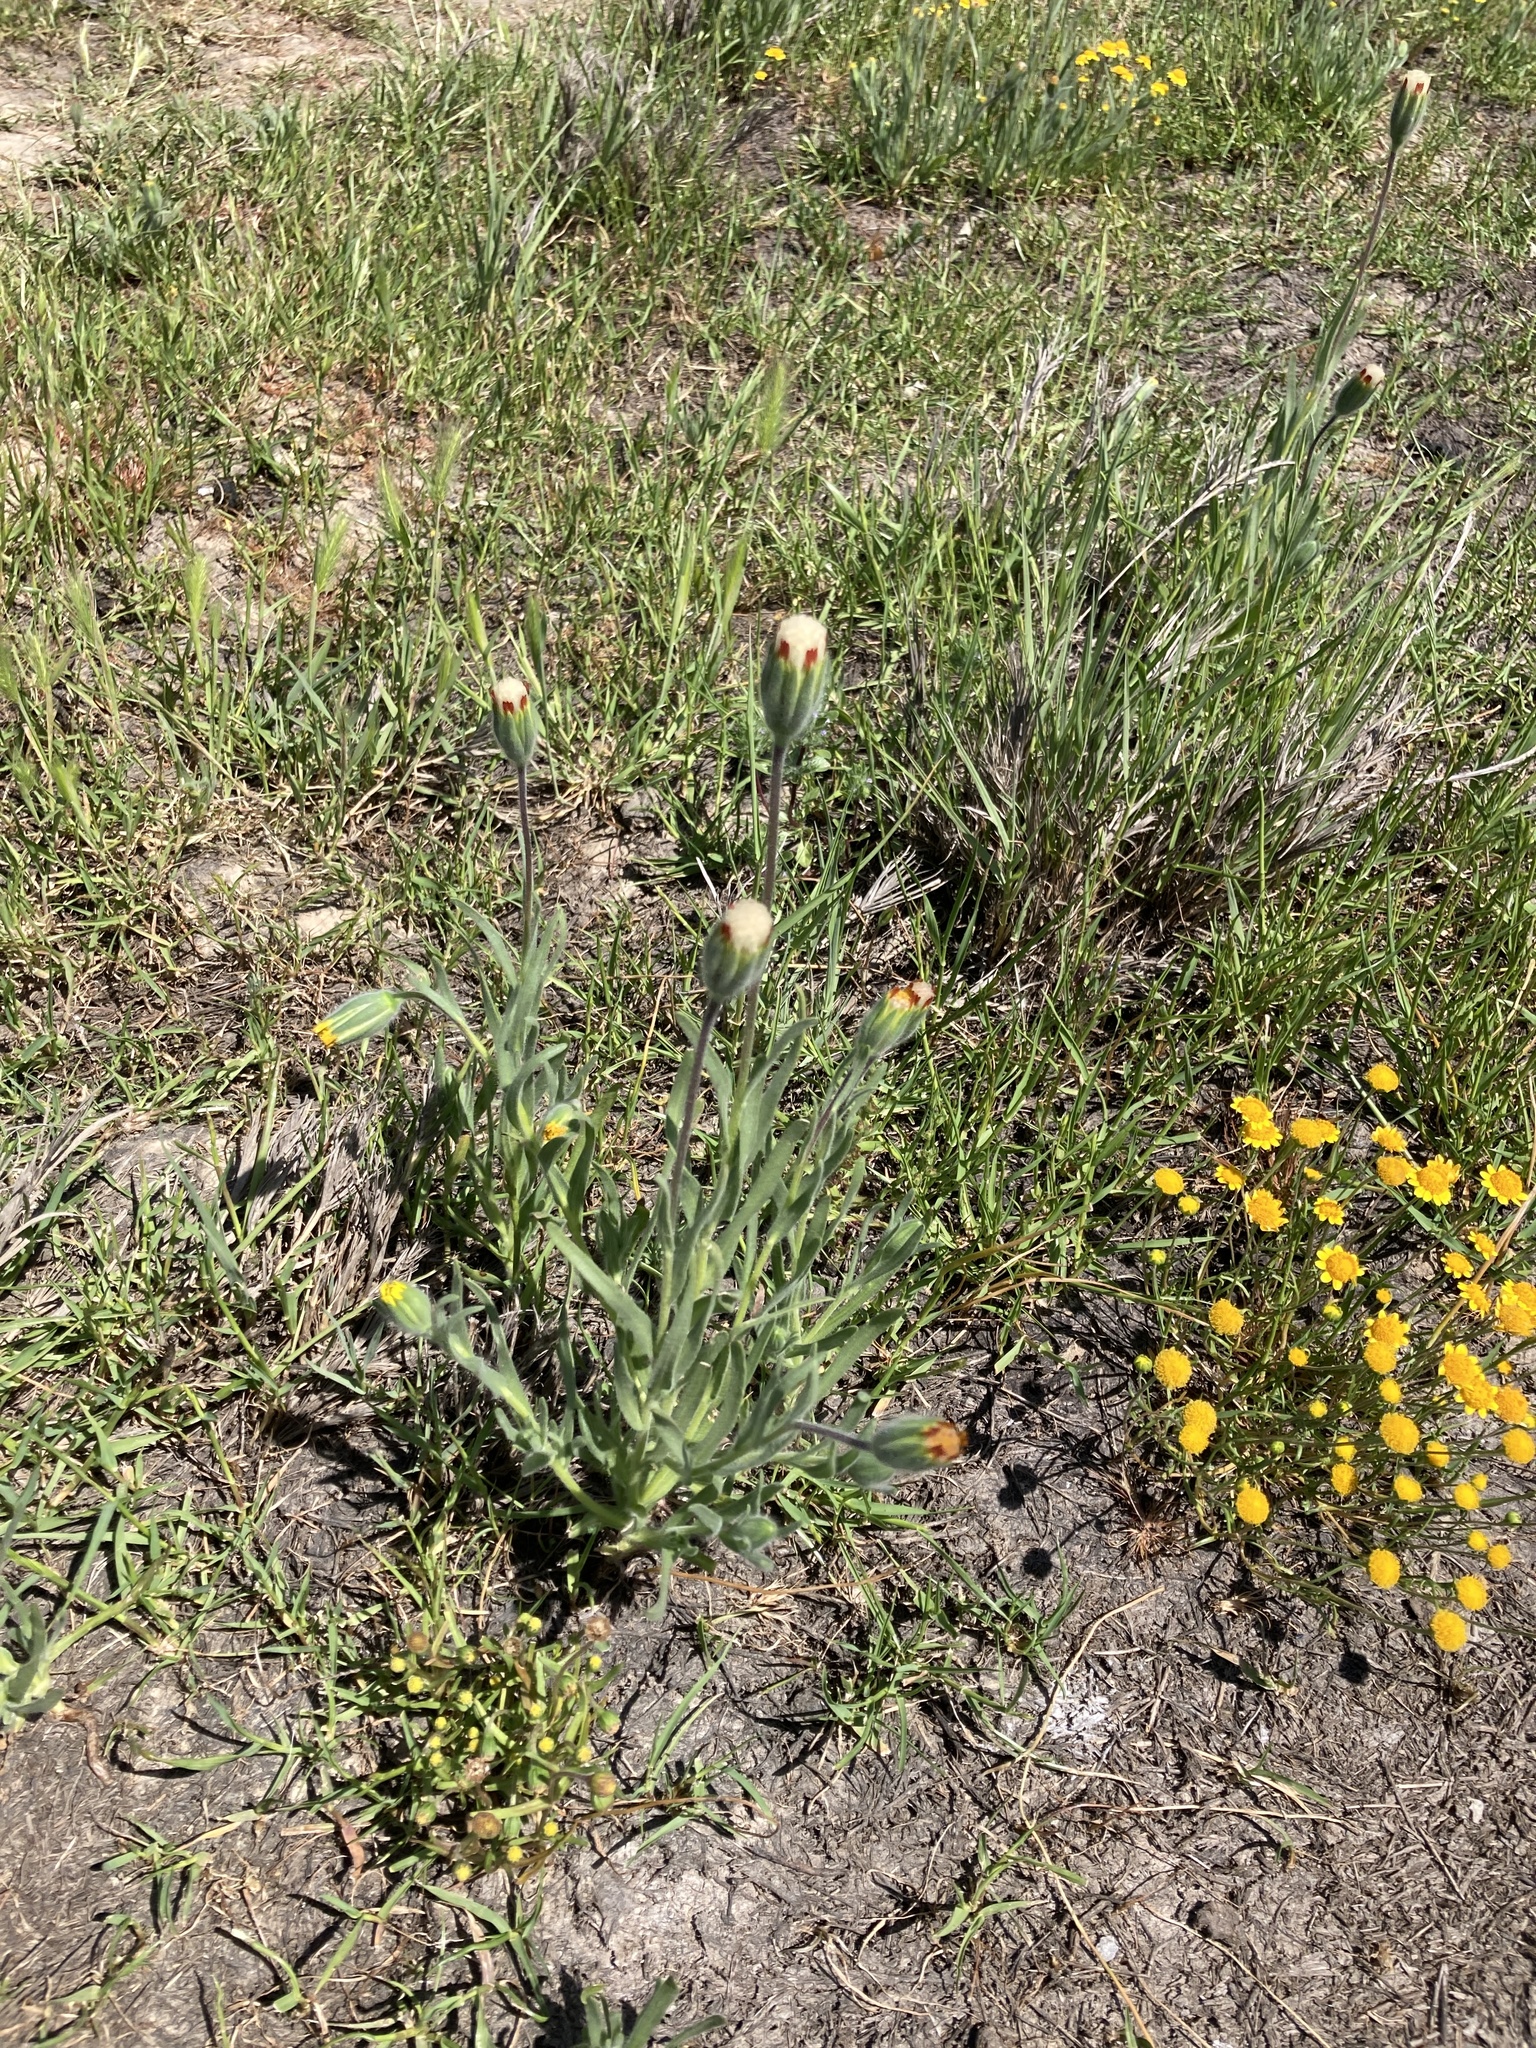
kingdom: Plantae
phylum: Tracheophyta
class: Magnoliopsida
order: Asterales
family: Asteraceae
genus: Achyrachaena
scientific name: Achyrachaena mollis
